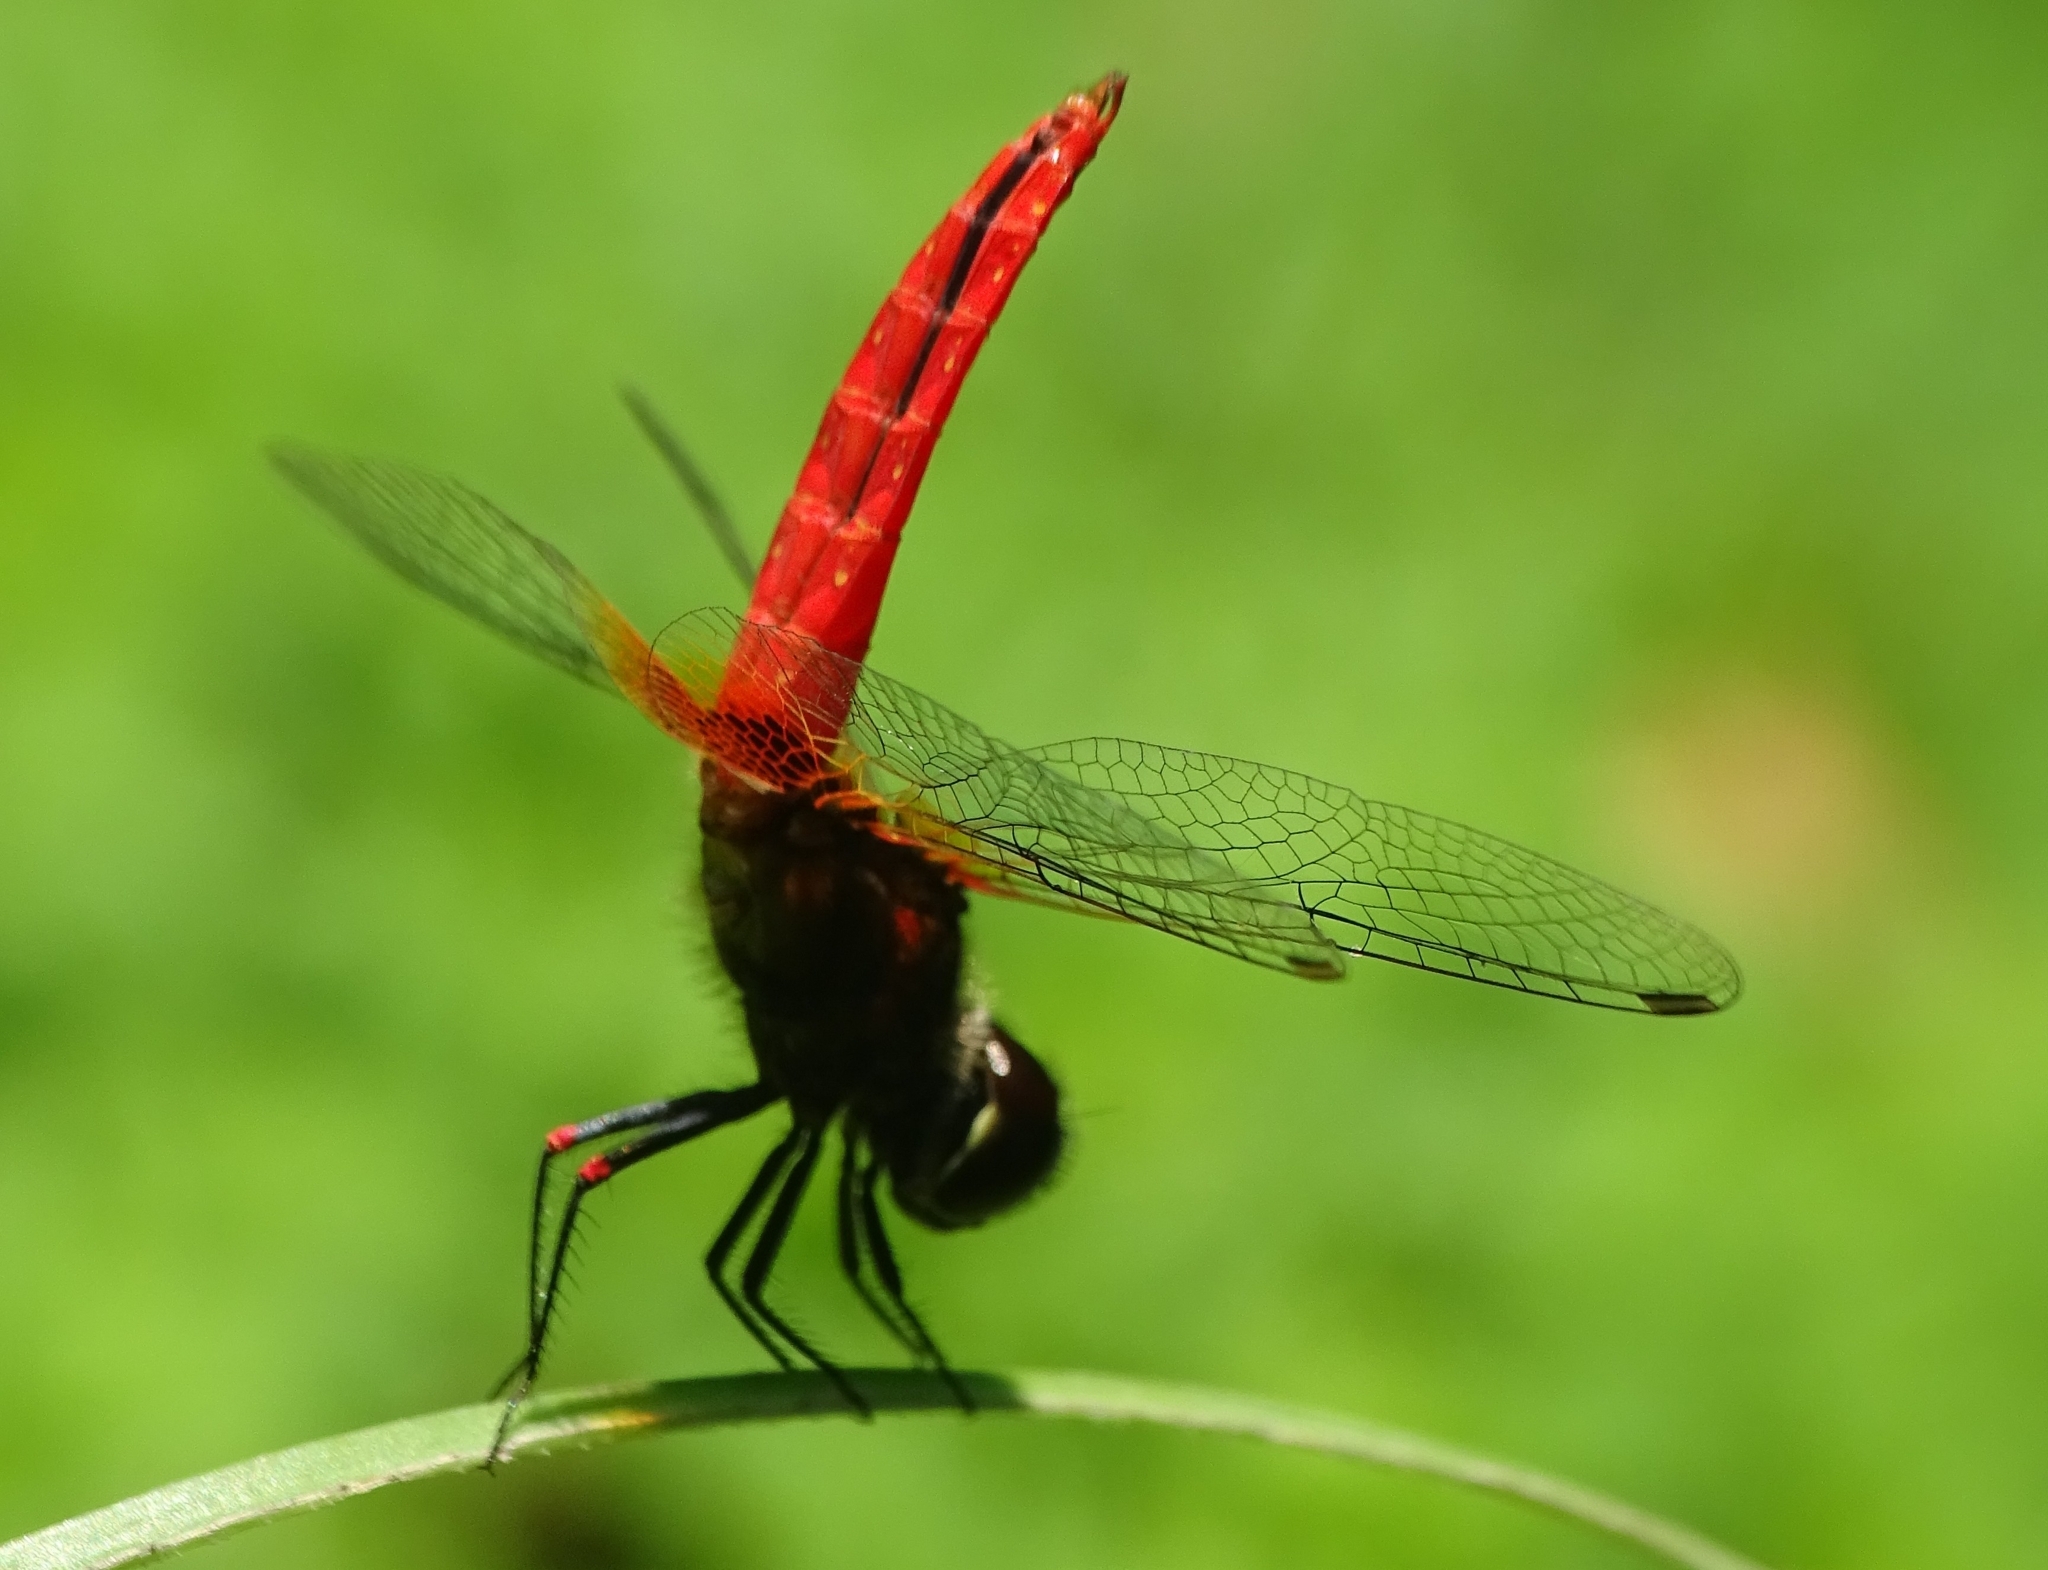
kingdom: Animalia
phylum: Arthropoda
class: Insecta
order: Odonata
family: Libellulidae
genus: Aethriamanta
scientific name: Aethriamanta brevipennis
